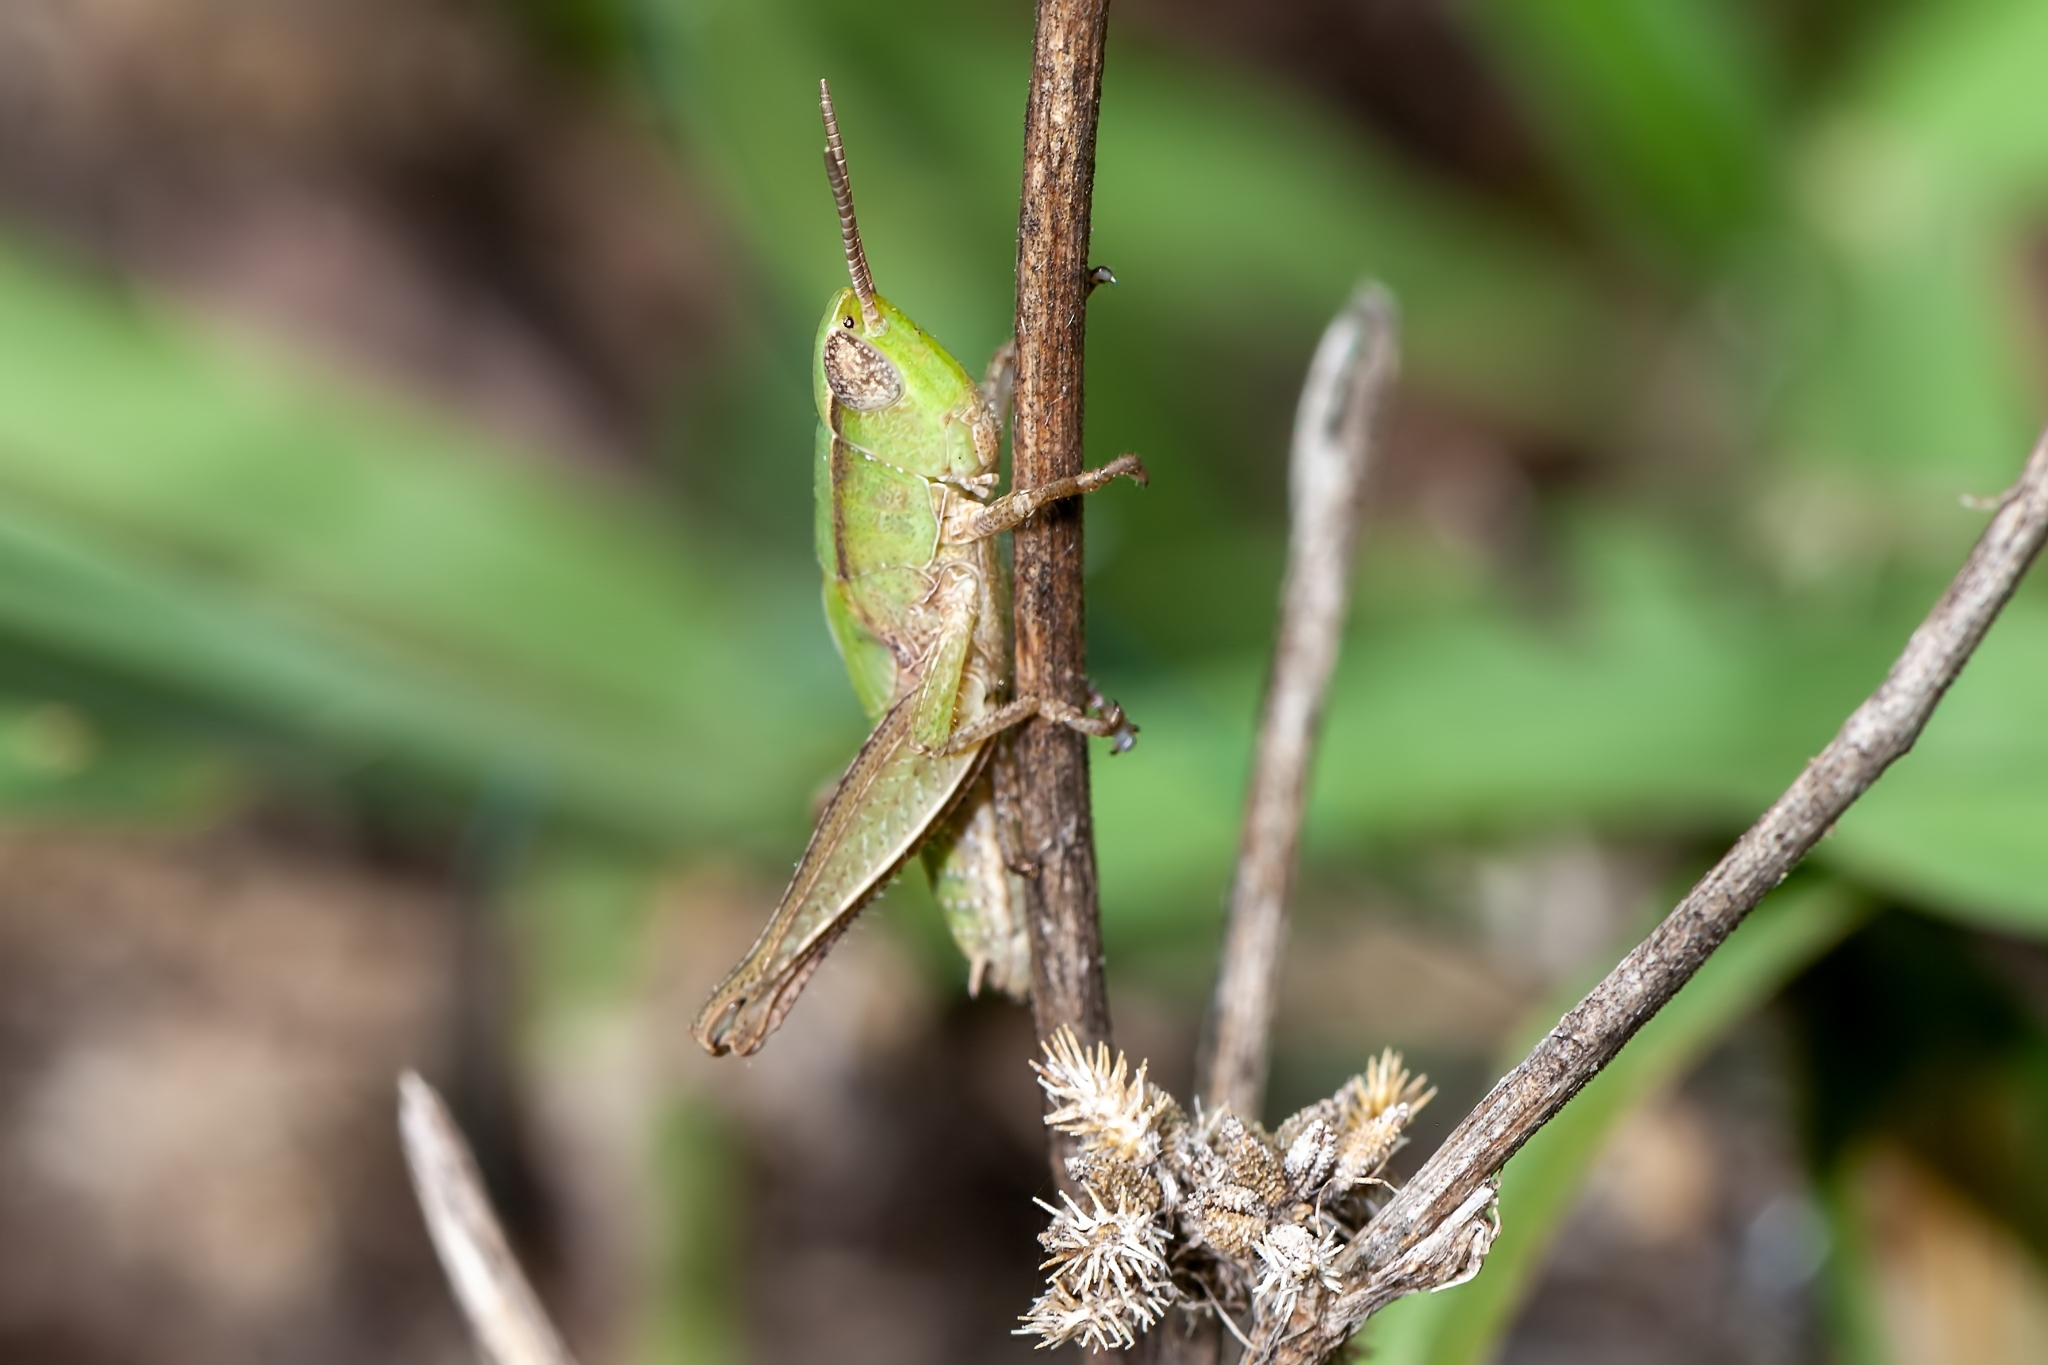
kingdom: Animalia
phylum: Arthropoda
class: Insecta
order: Orthoptera
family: Acrididae
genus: Dichromorpha
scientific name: Dichromorpha viridis
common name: Short-winged green grasshopper
